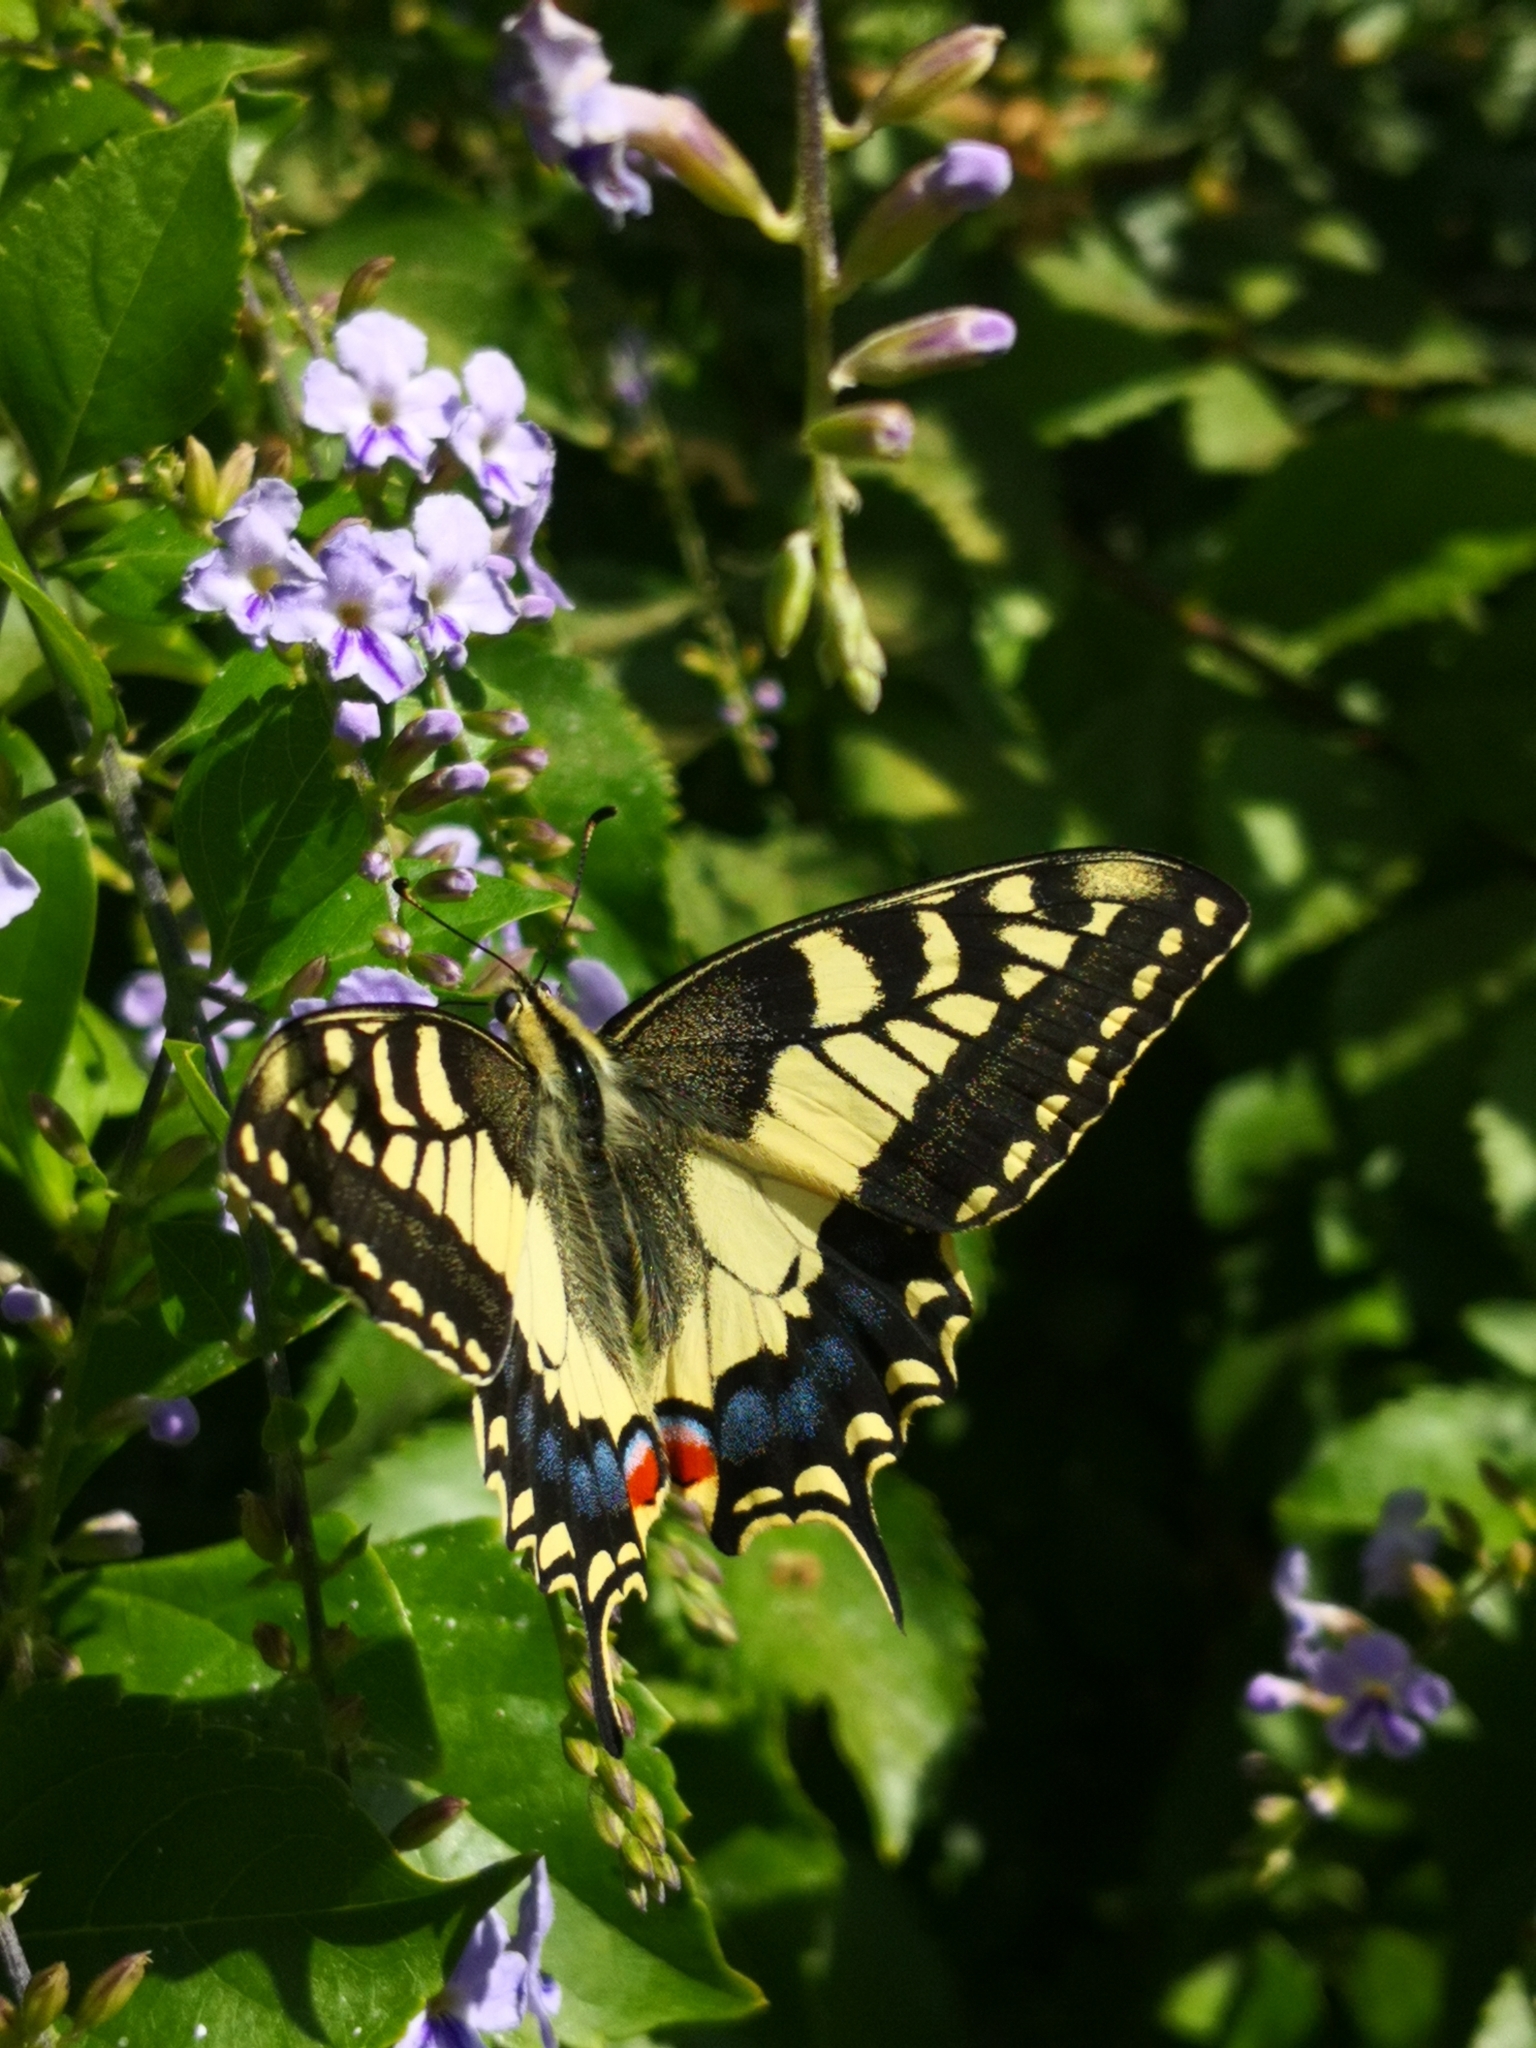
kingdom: Animalia
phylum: Arthropoda
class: Insecta
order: Lepidoptera
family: Papilionidae
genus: Papilio
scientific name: Papilio machaon
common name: Swallowtail
